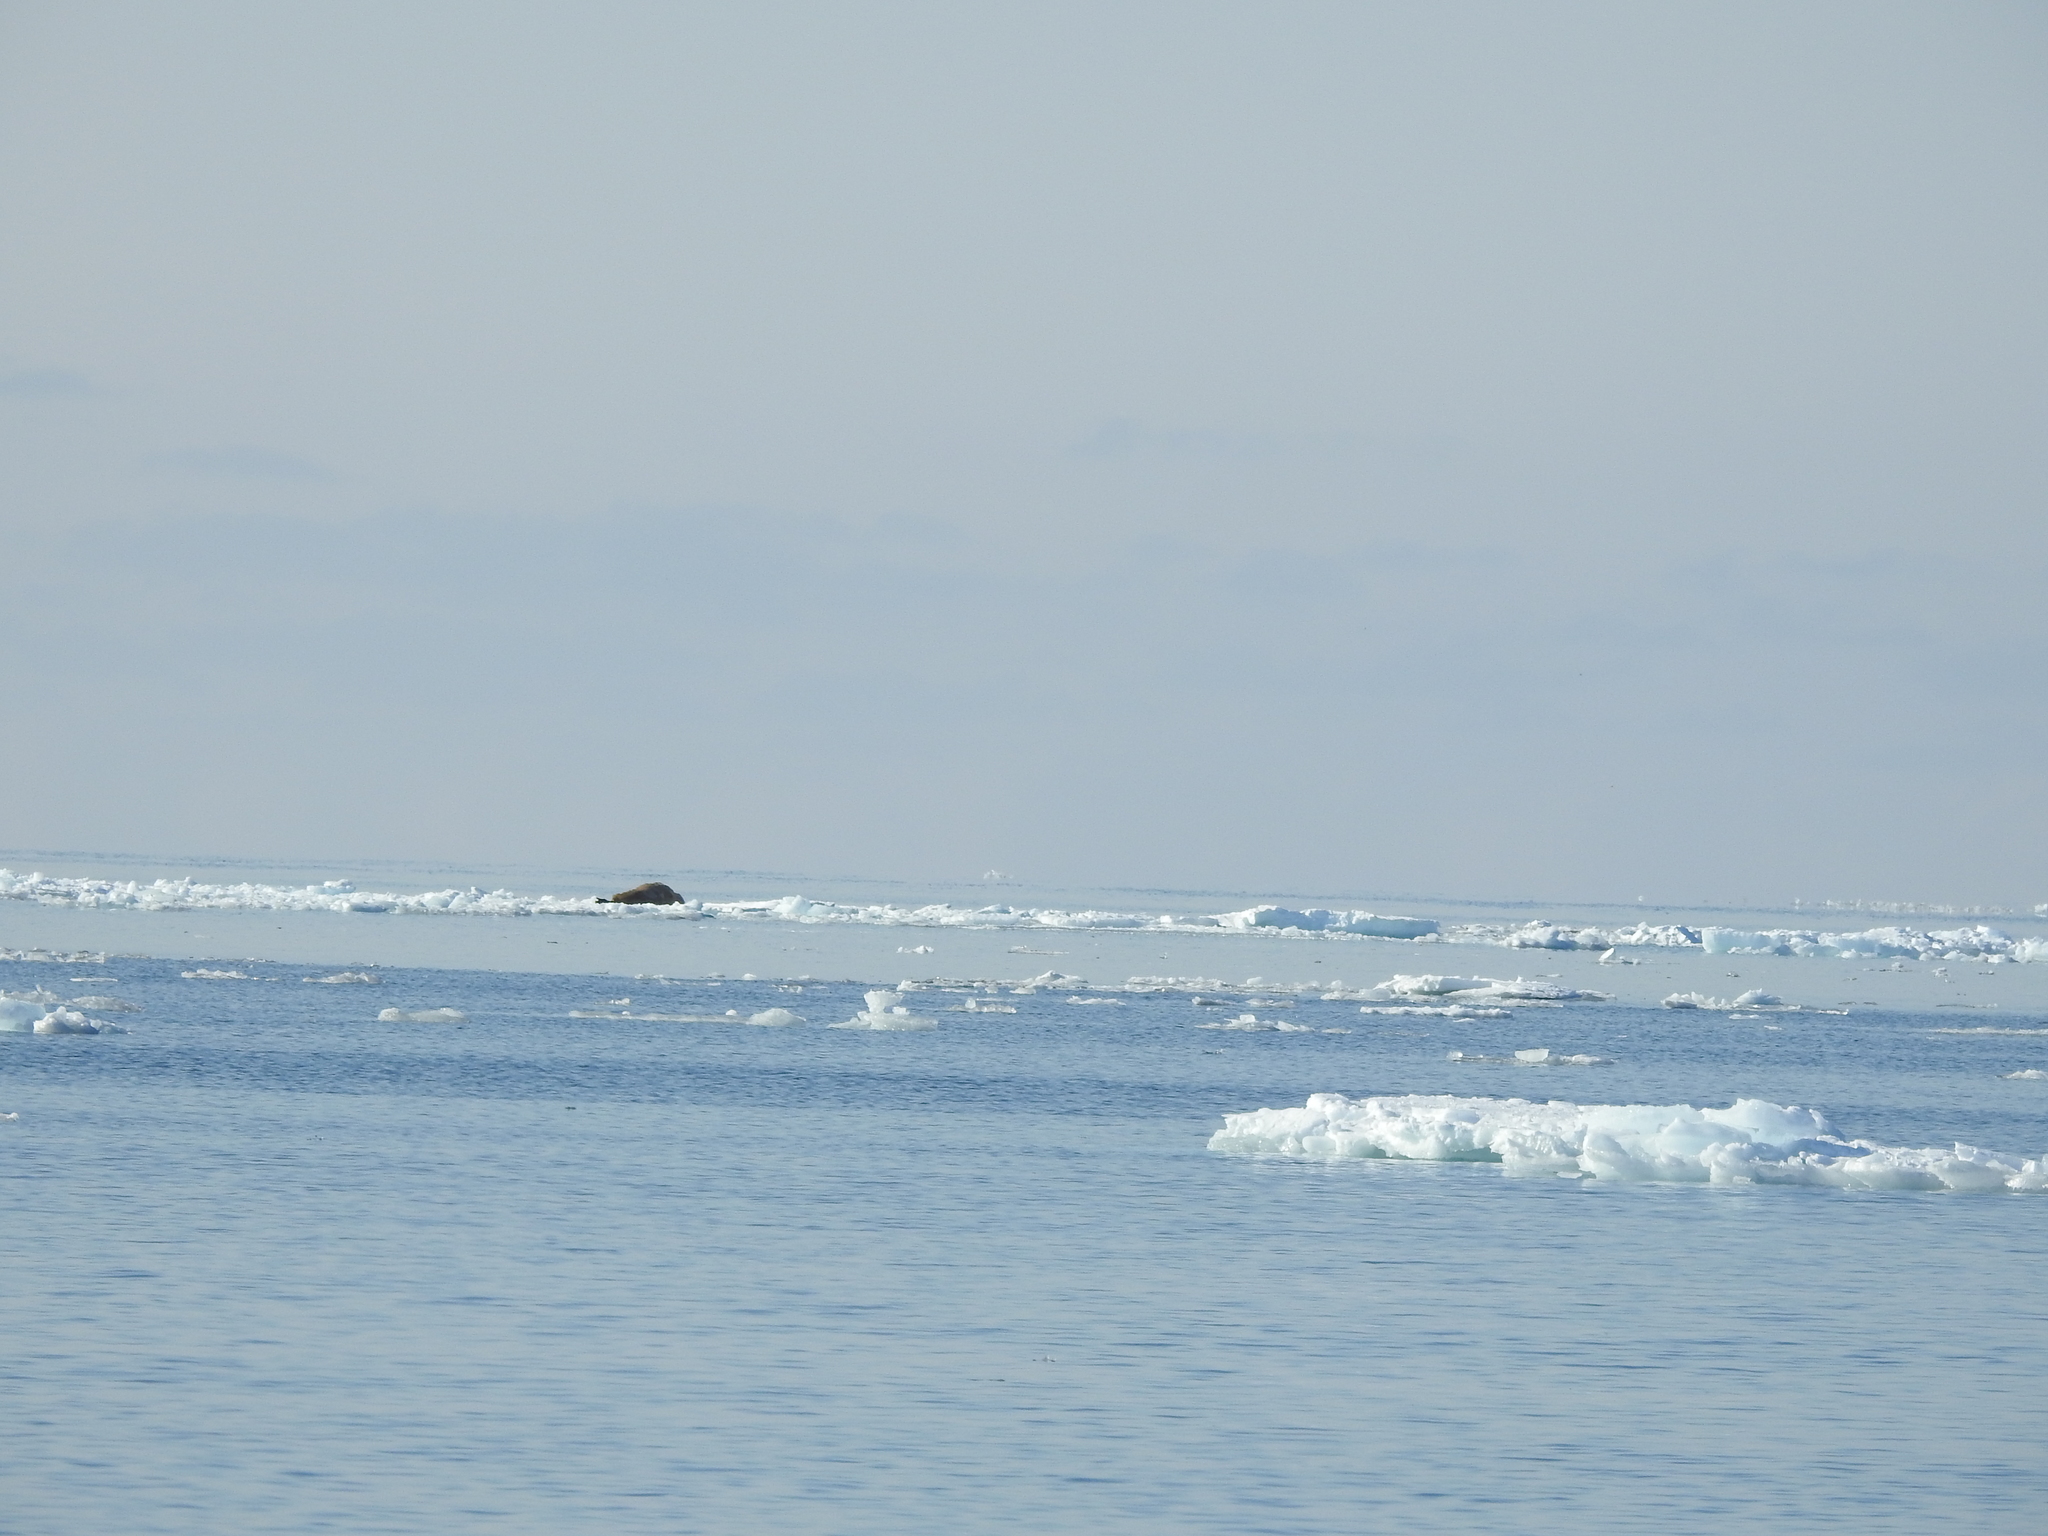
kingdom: Animalia
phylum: Chordata
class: Mammalia
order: Carnivora
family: Odobenidae
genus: Odobenus
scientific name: Odobenus rosmarus
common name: Walrus
